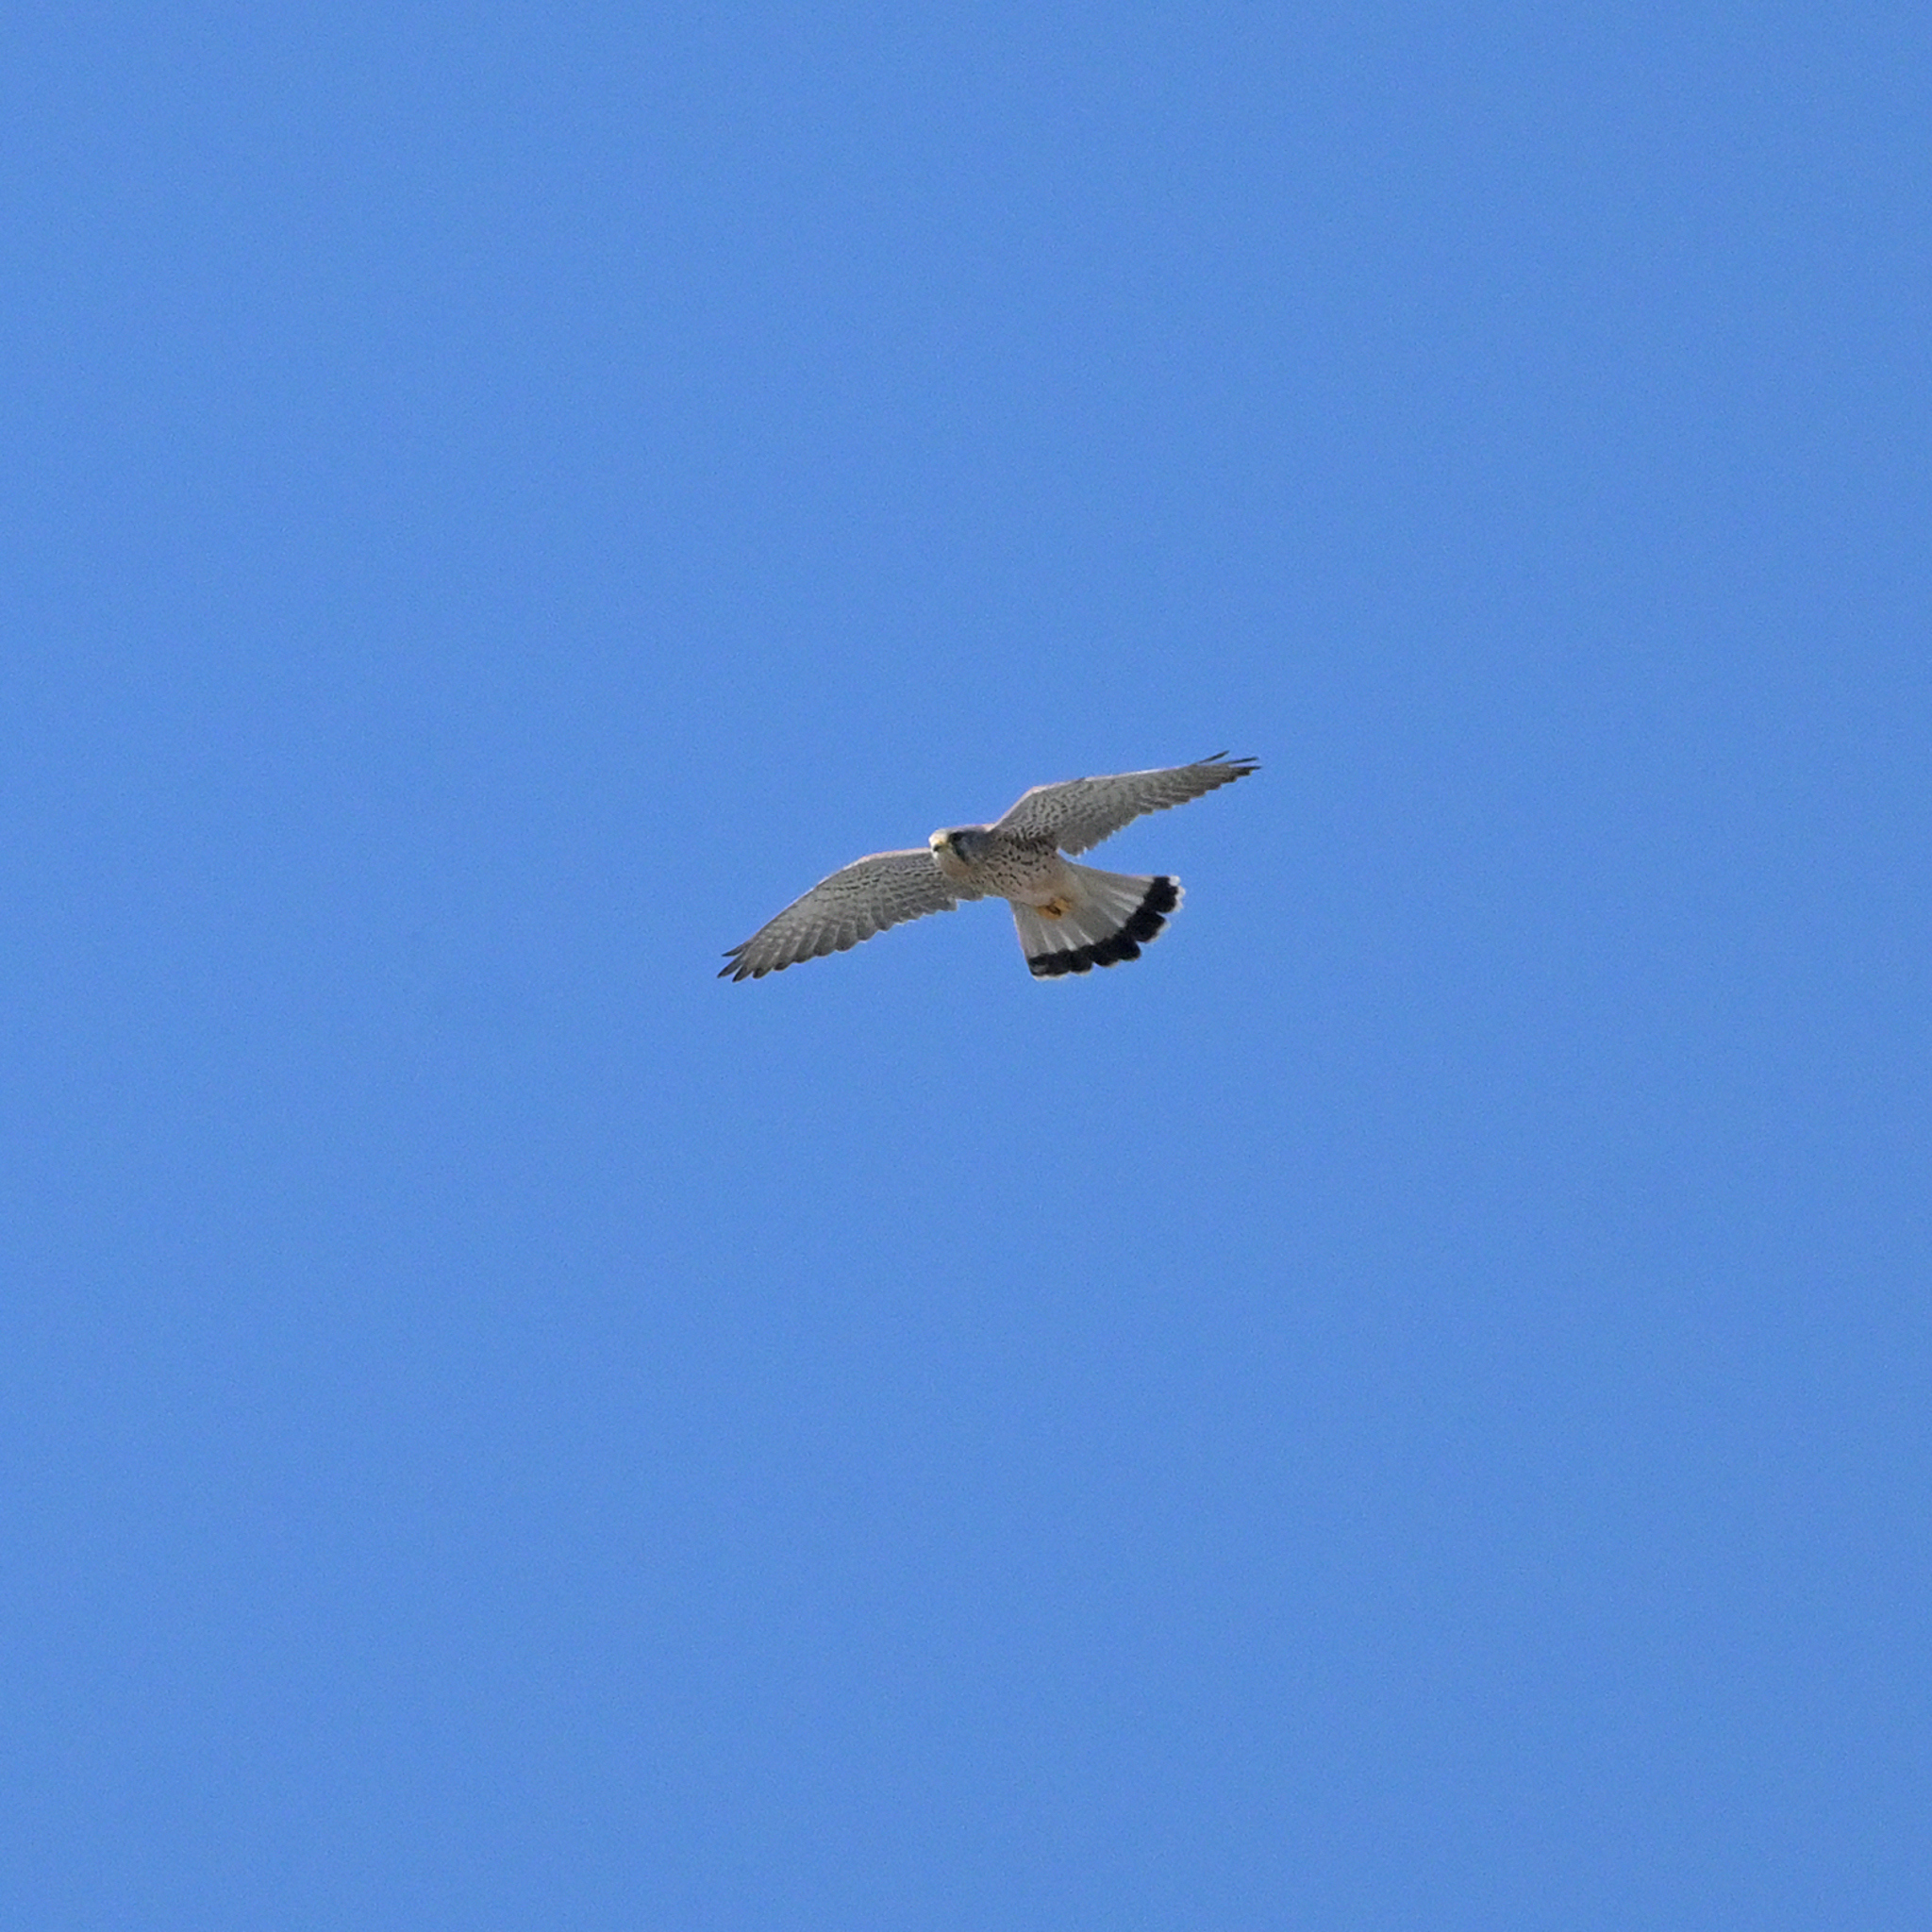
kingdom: Animalia
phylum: Chordata
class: Aves
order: Falconiformes
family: Falconidae
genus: Falco
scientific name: Falco tinnunculus
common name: Common kestrel
